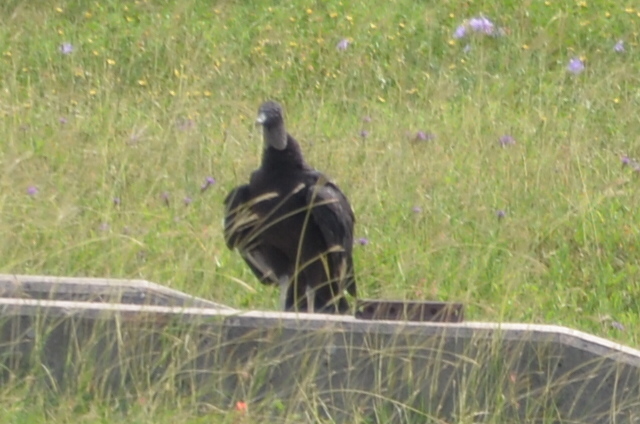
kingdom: Animalia
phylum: Chordata
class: Aves
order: Accipitriformes
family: Cathartidae
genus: Coragyps
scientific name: Coragyps atratus
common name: Black vulture
